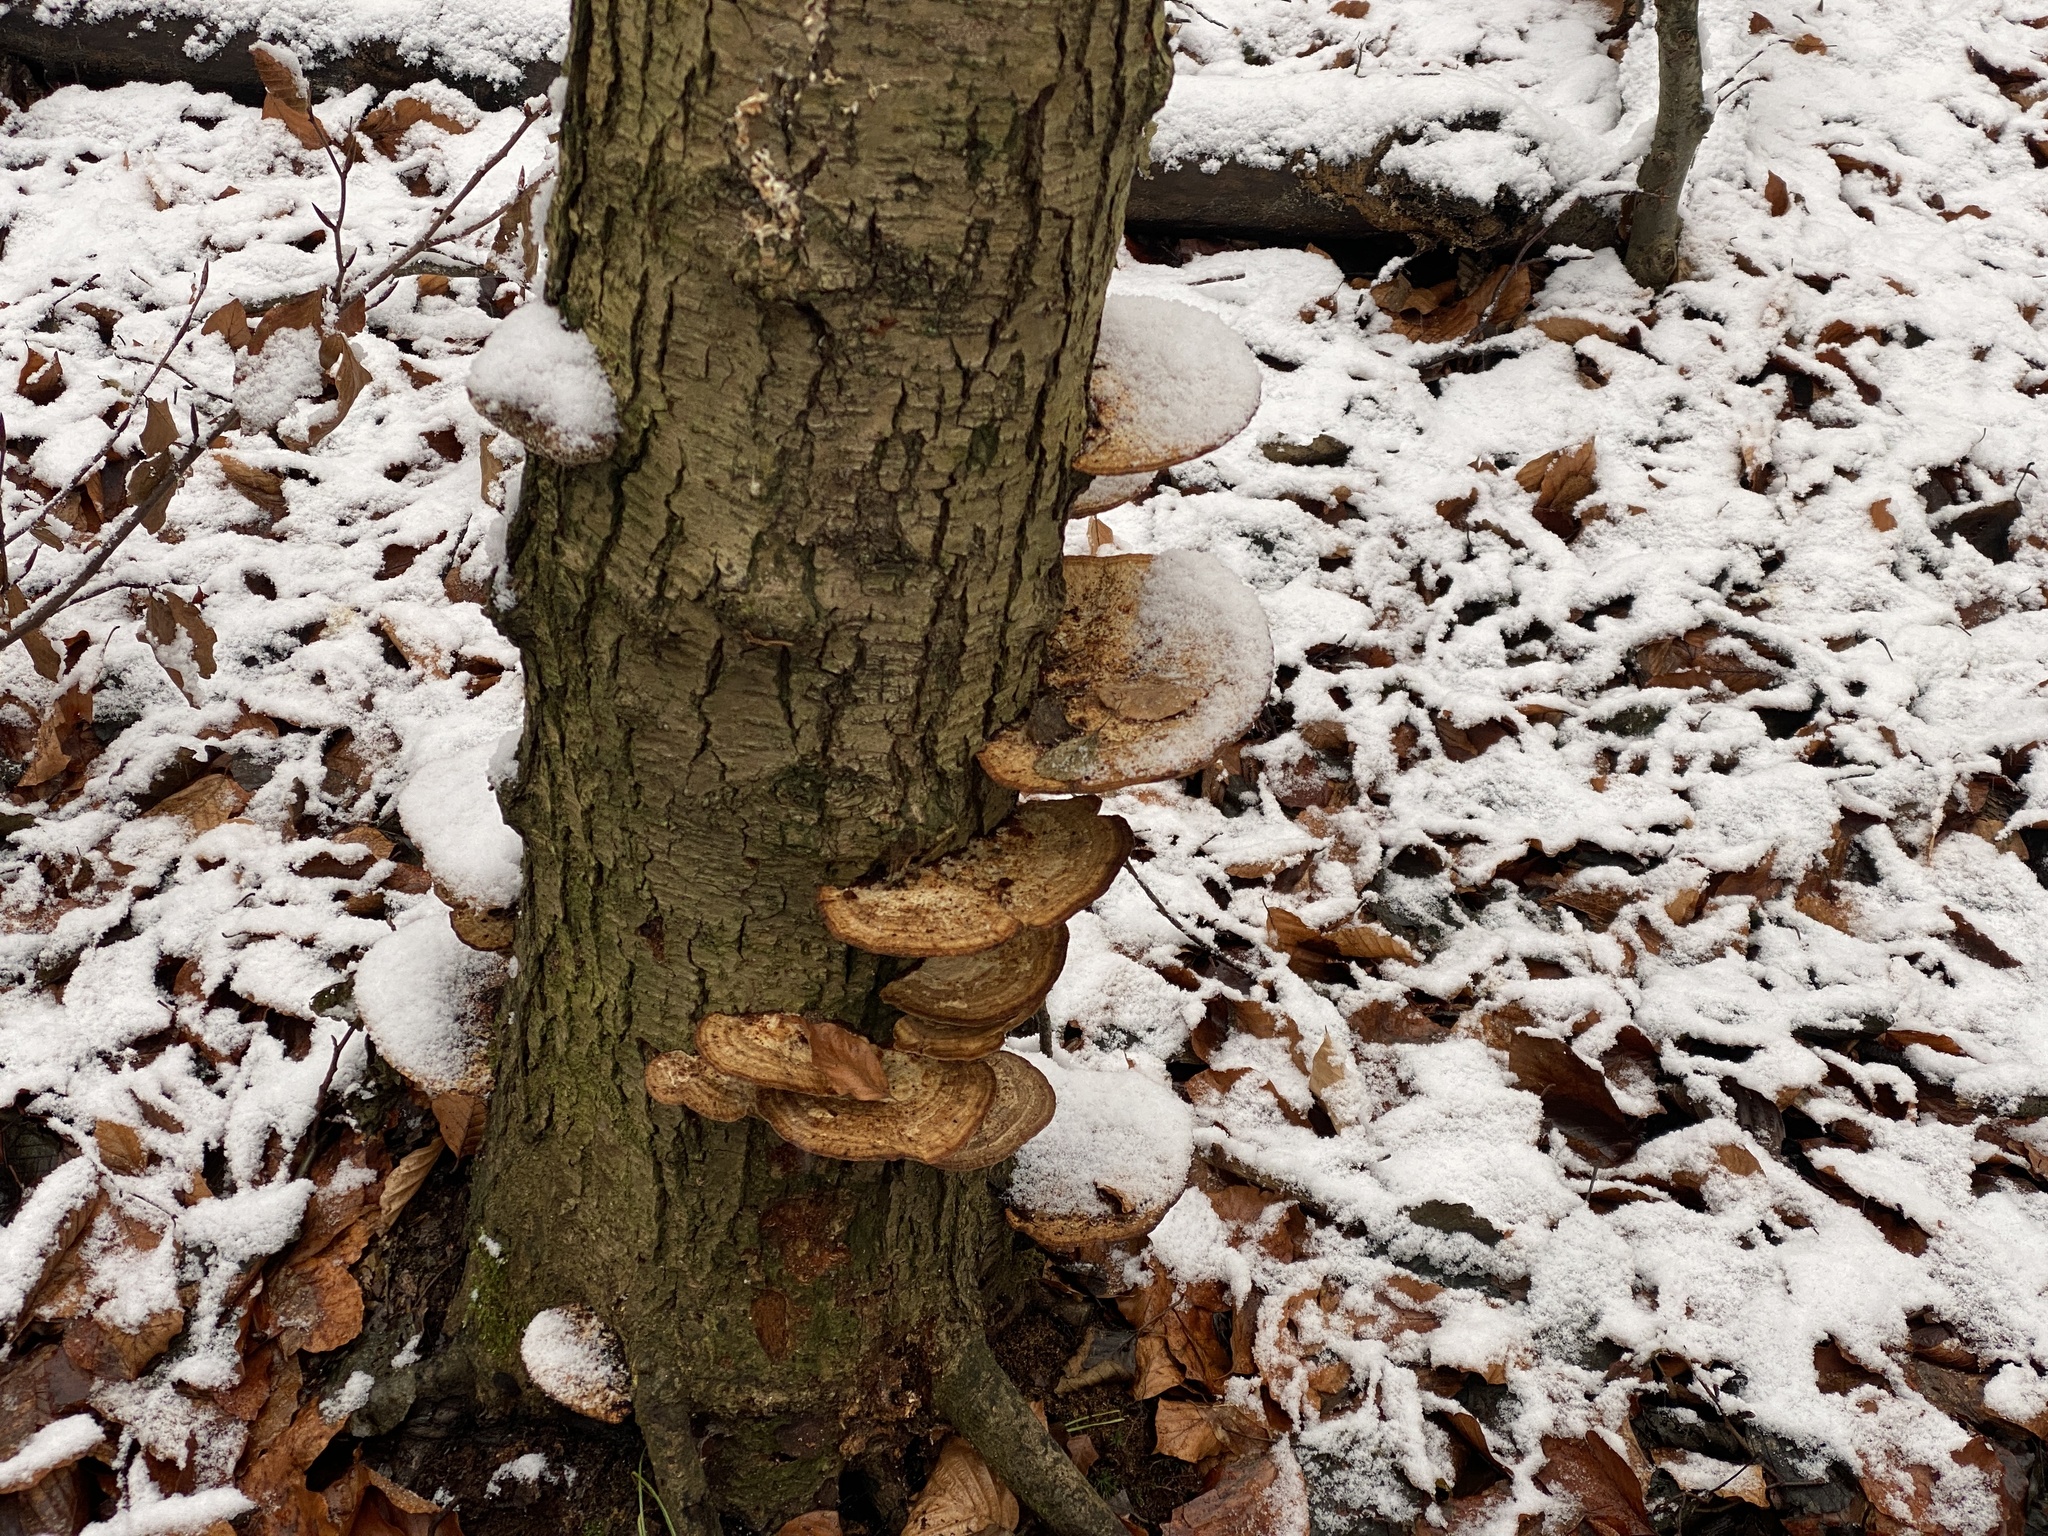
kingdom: Fungi
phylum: Basidiomycota
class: Agaricomycetes
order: Polyporales
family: Polyporaceae
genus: Daedaleopsis
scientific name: Daedaleopsis confragosa
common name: Blushing bracket
